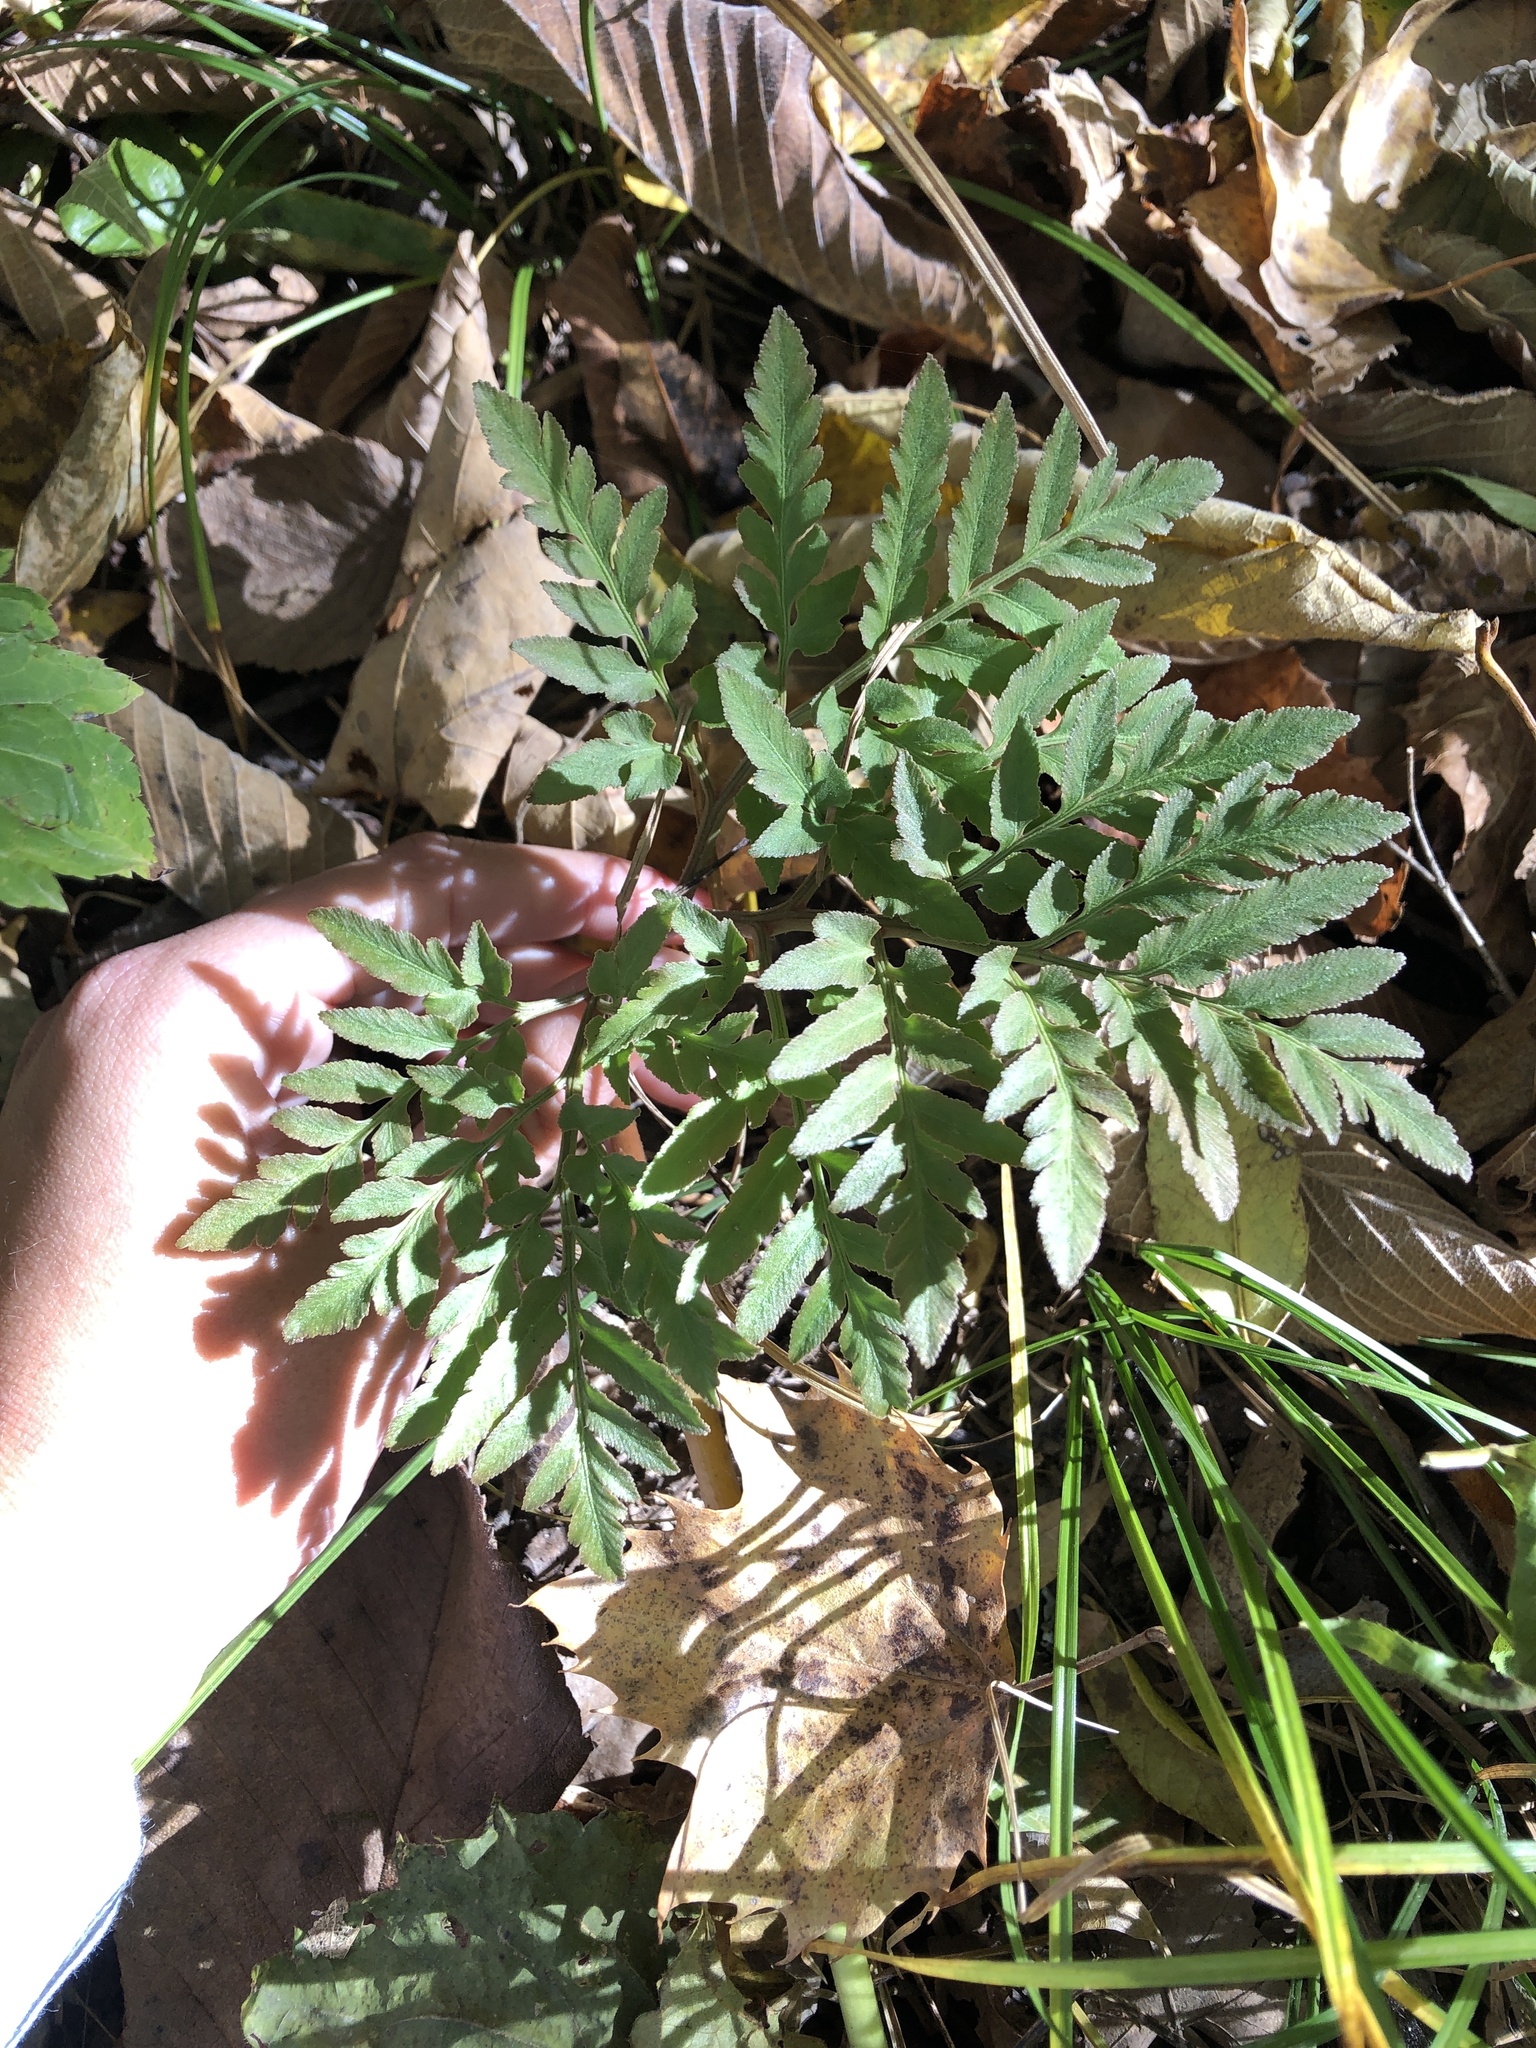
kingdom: Plantae
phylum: Tracheophyta
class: Polypodiopsida
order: Ophioglossales
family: Ophioglossaceae
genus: Sceptridium
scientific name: Sceptridium dissectum
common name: Cut-leaved grapefern
